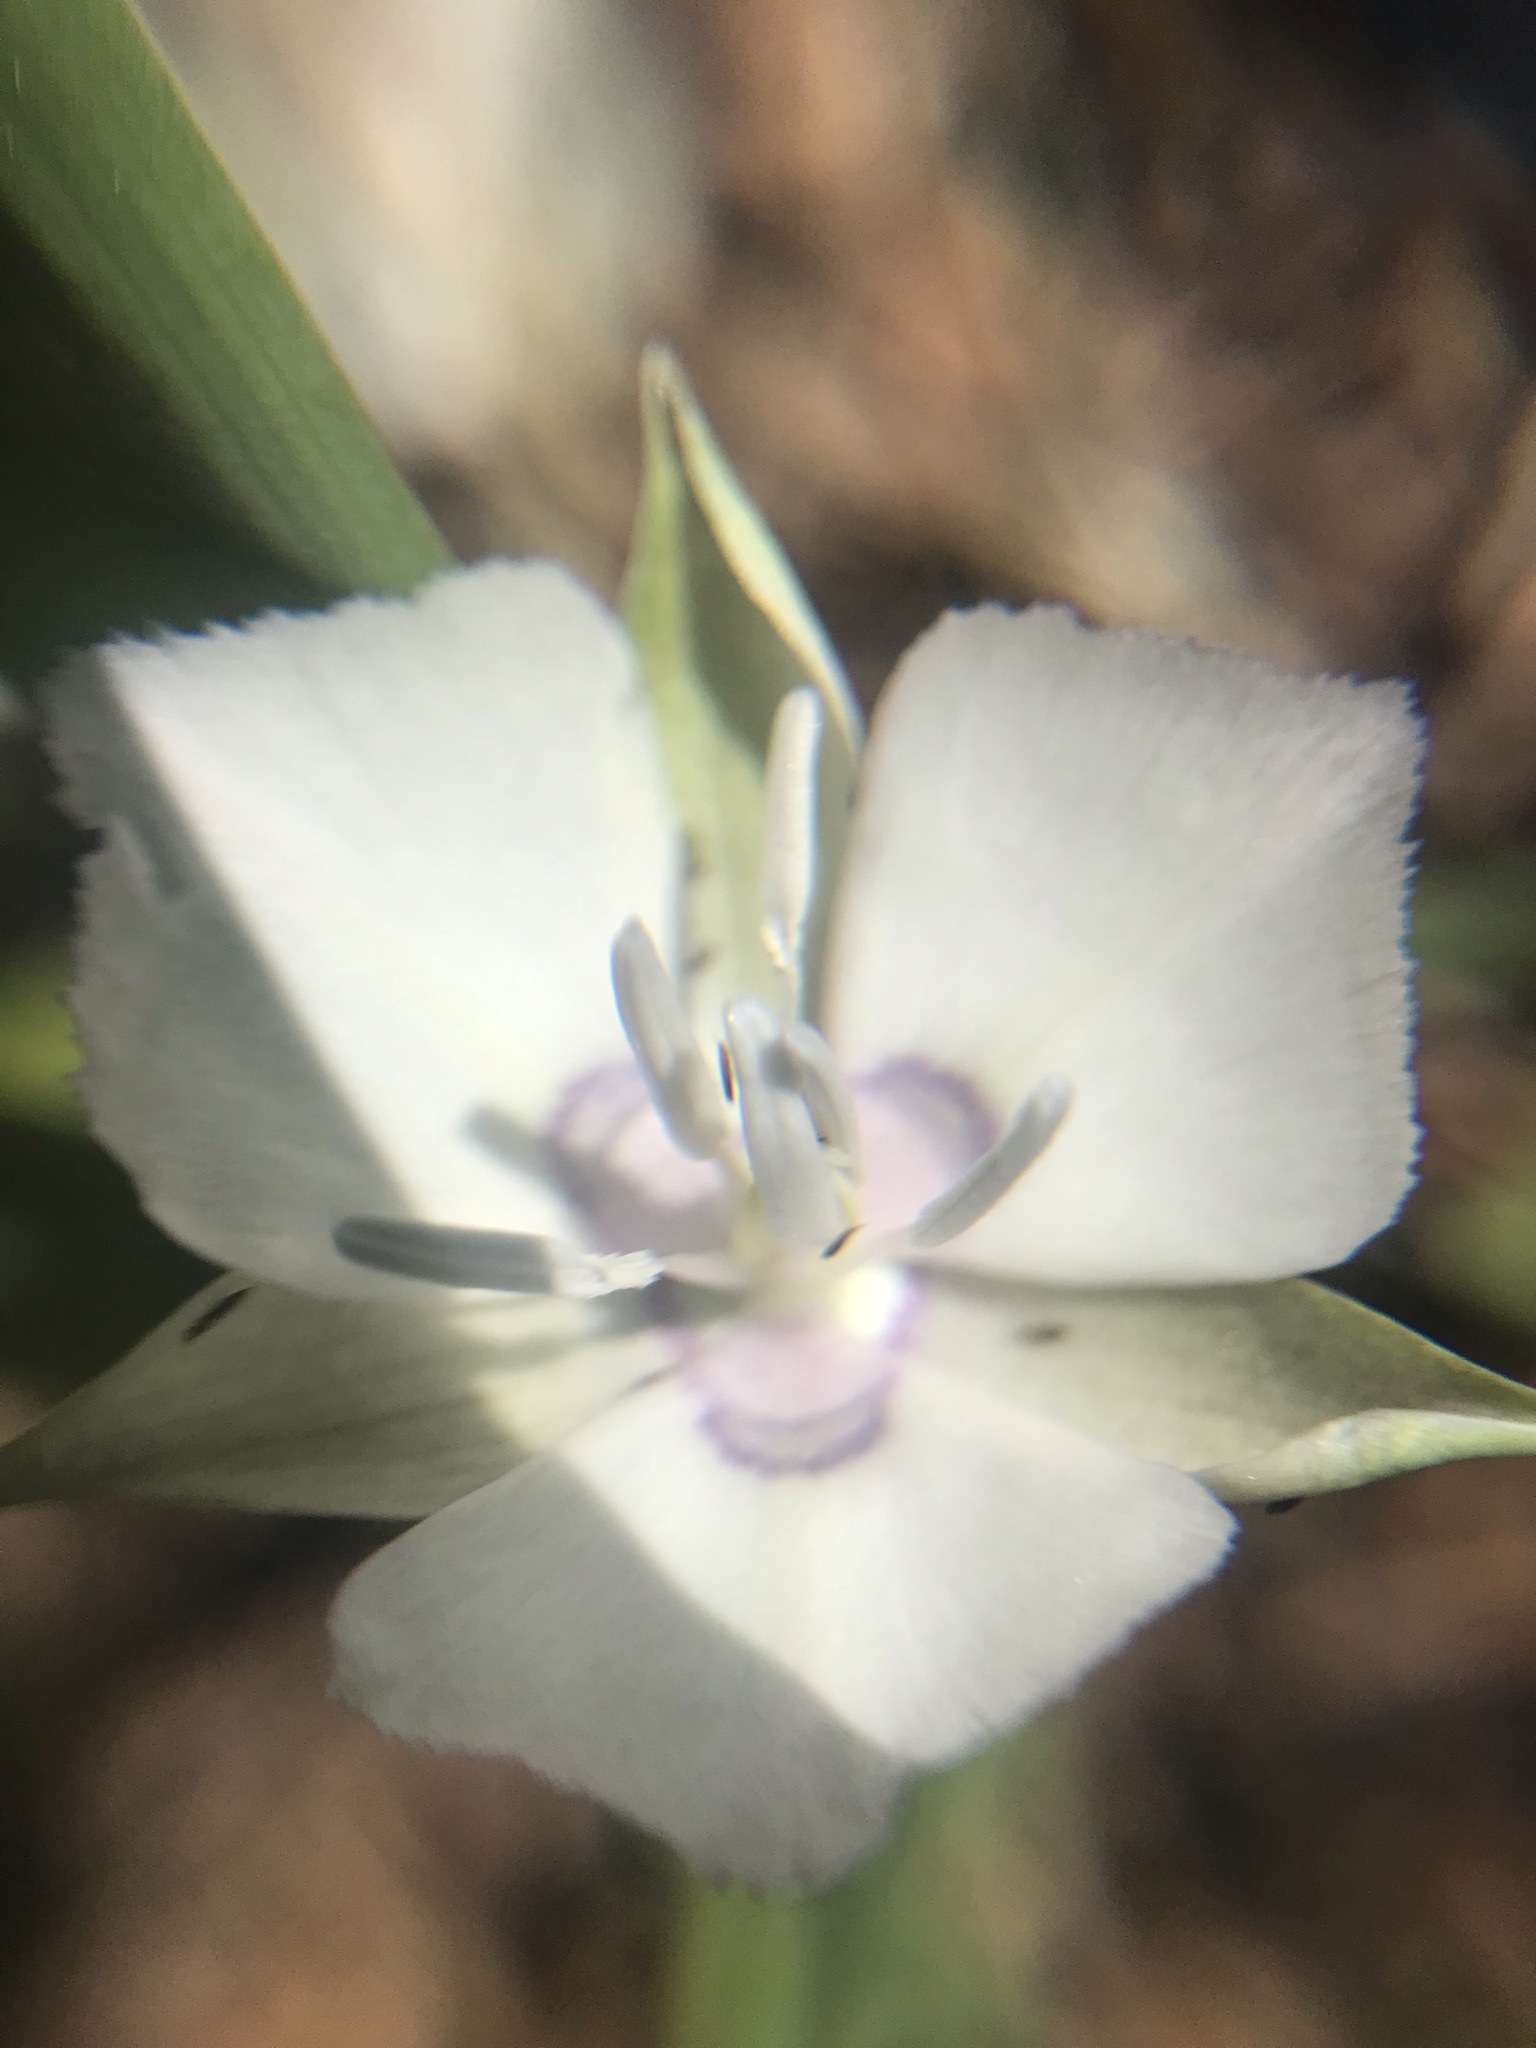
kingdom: Plantae
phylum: Tracheophyta
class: Liliopsida
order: Liliales
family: Liliaceae
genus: Calochortus
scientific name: Calochortus minimus
